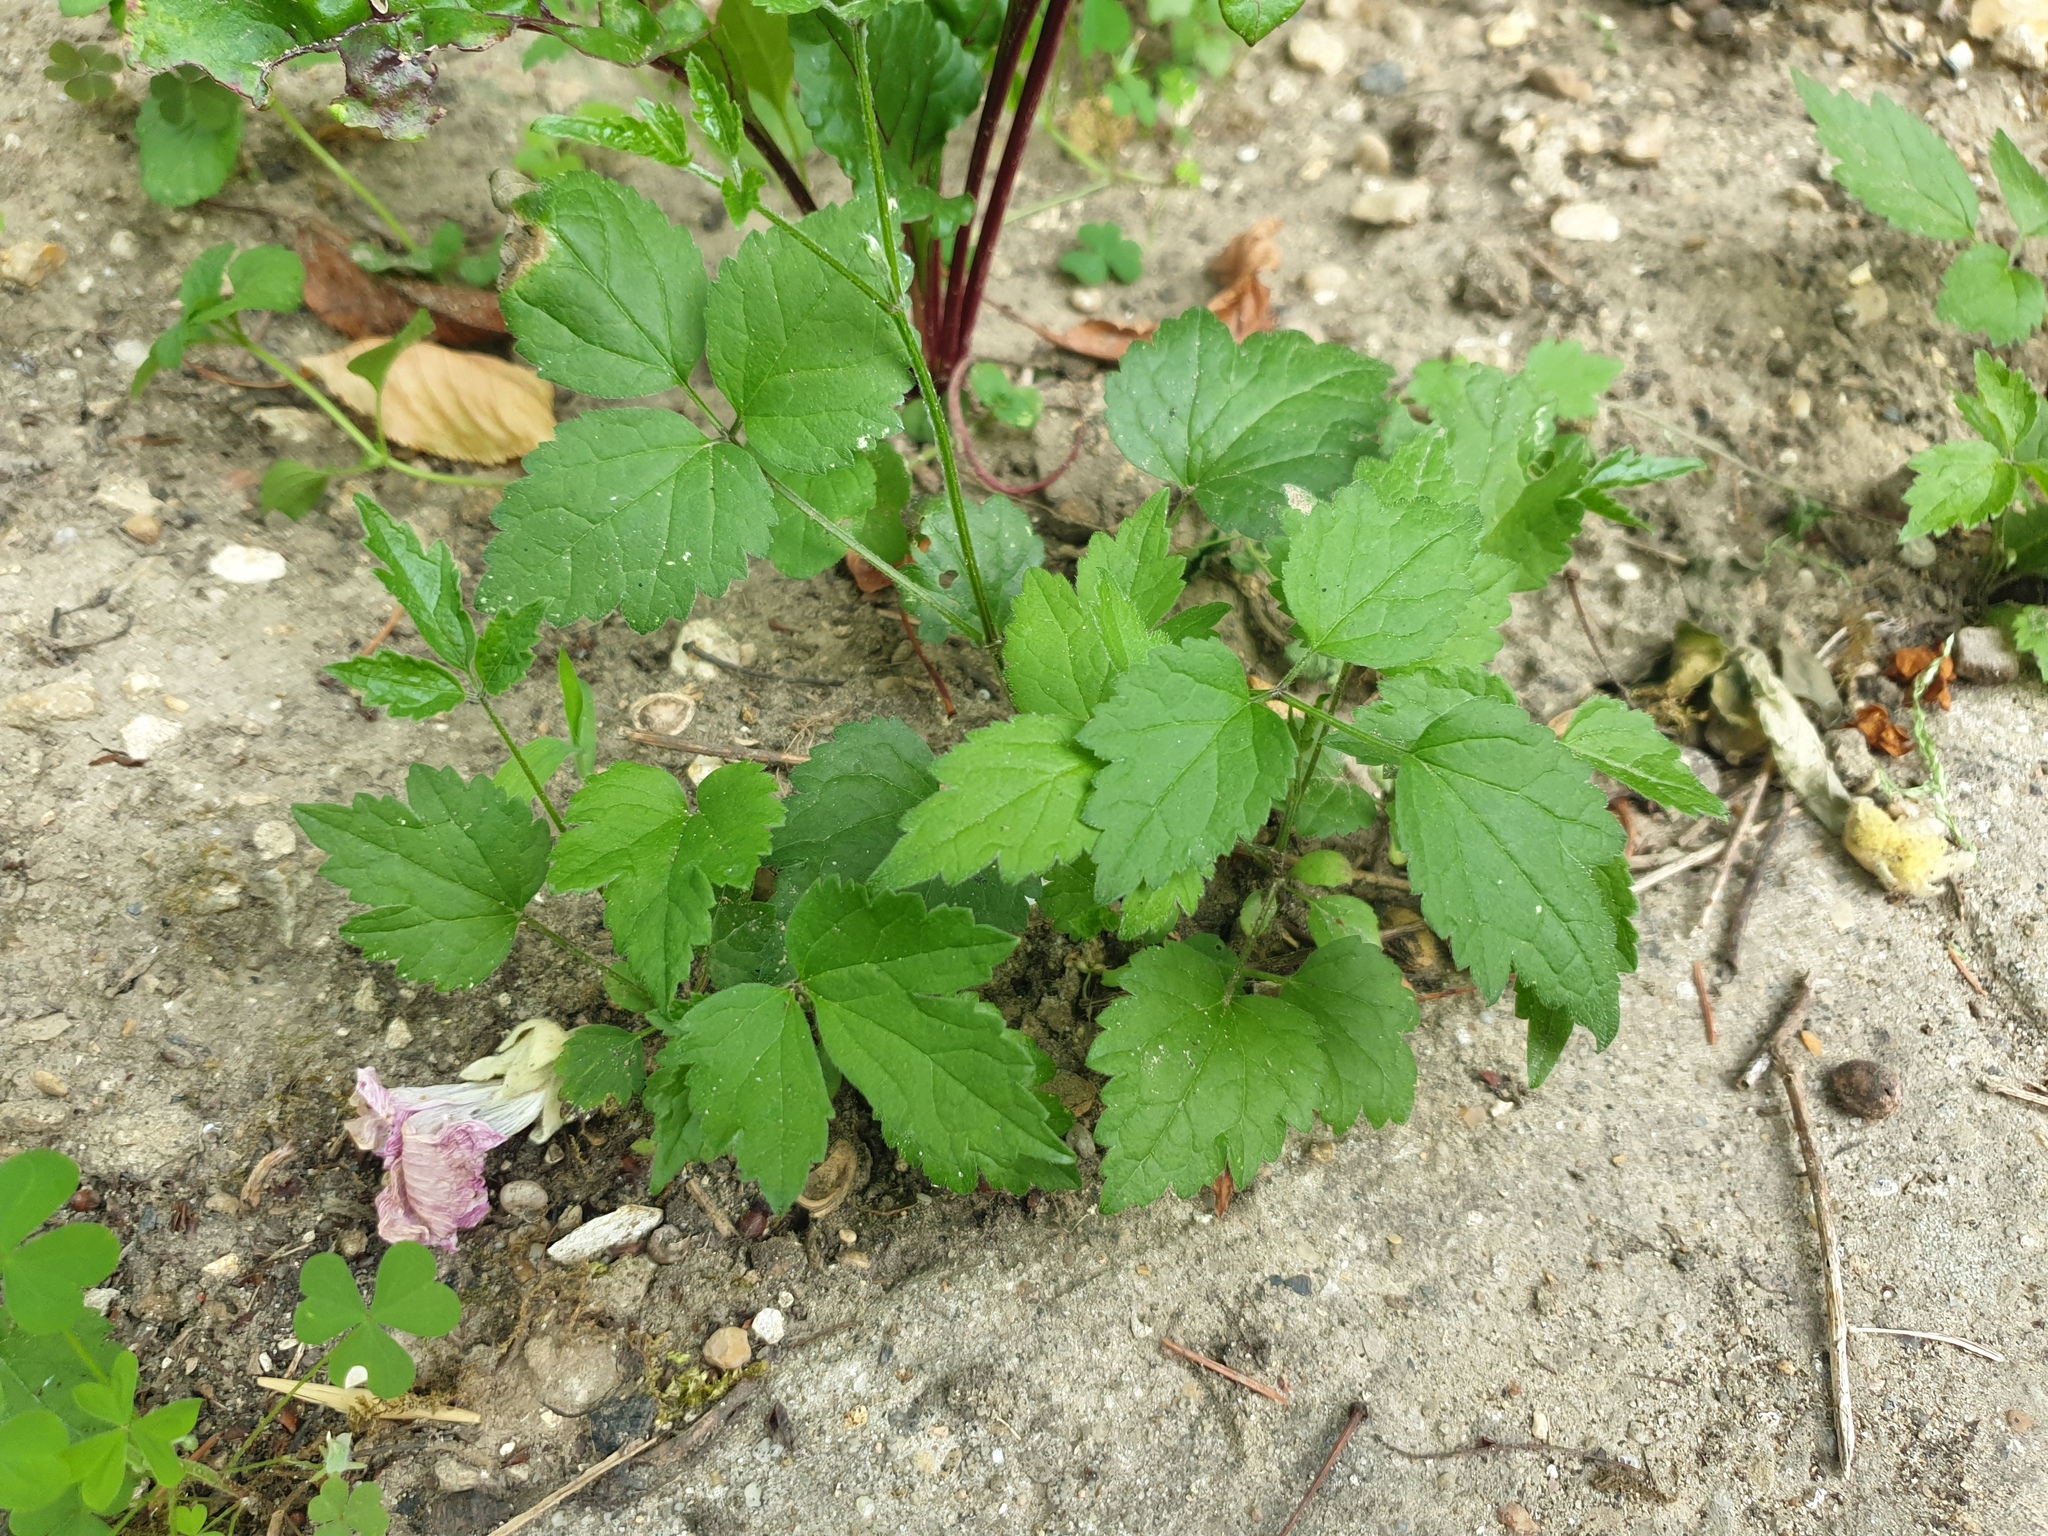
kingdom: Plantae
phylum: Tracheophyta
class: Magnoliopsida
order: Ranunculales
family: Ranunculaceae
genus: Clematis
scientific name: Clematis vitalba
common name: Evergreen clematis
